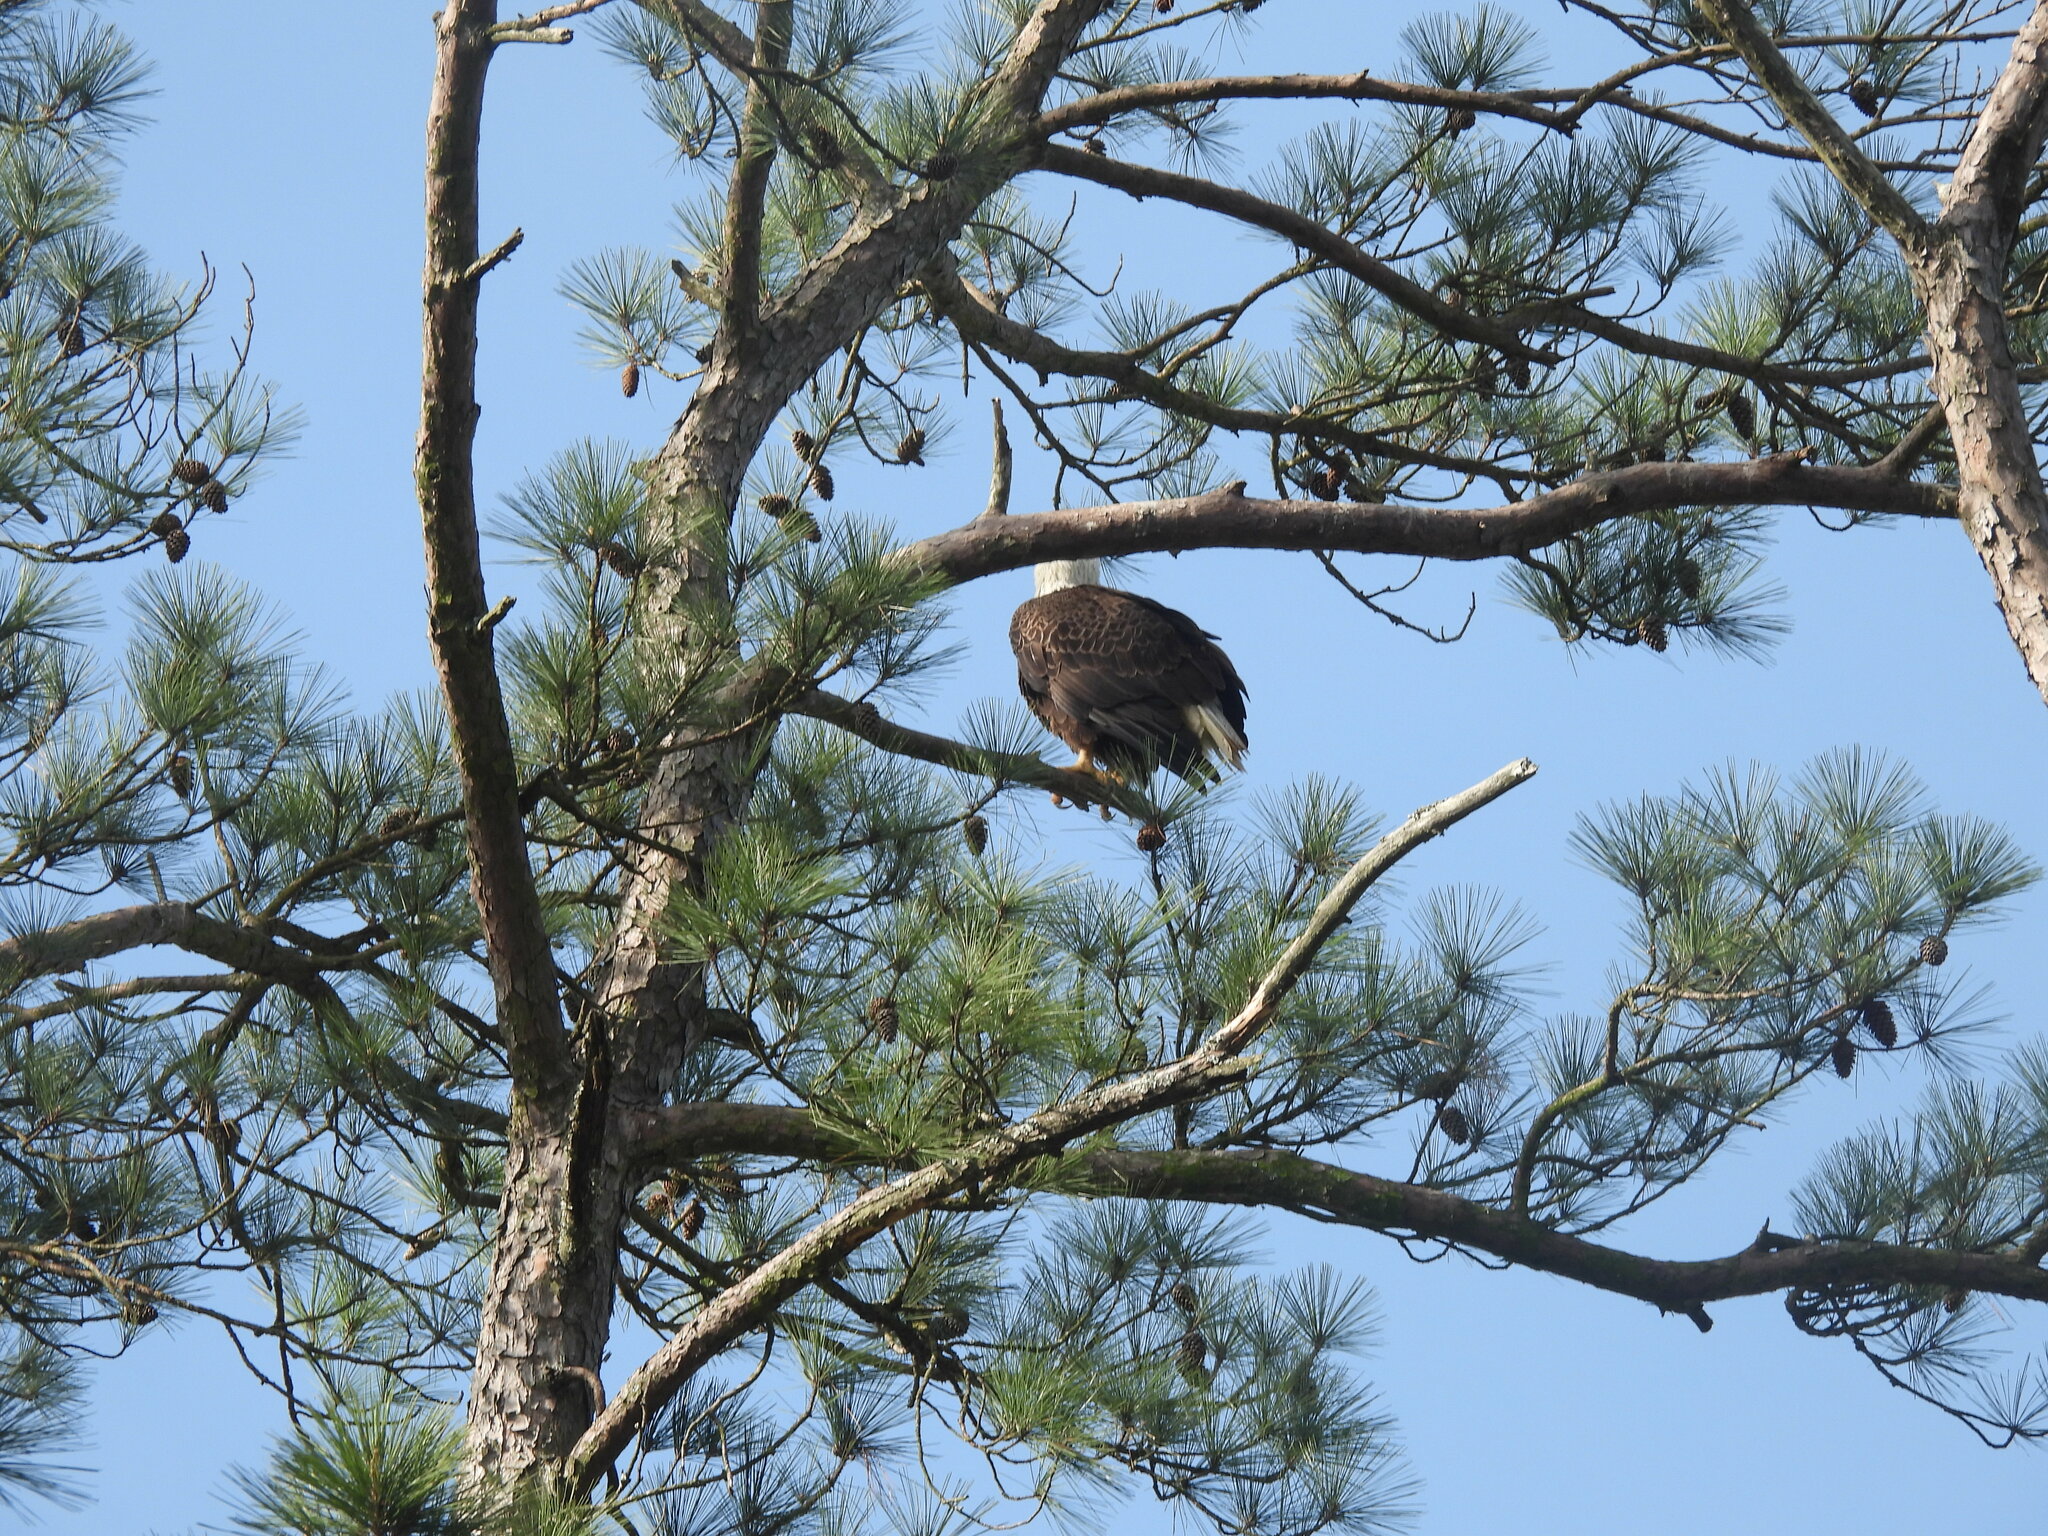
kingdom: Animalia
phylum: Chordata
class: Aves
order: Accipitriformes
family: Accipitridae
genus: Haliaeetus
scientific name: Haliaeetus leucocephalus
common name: Bald eagle
